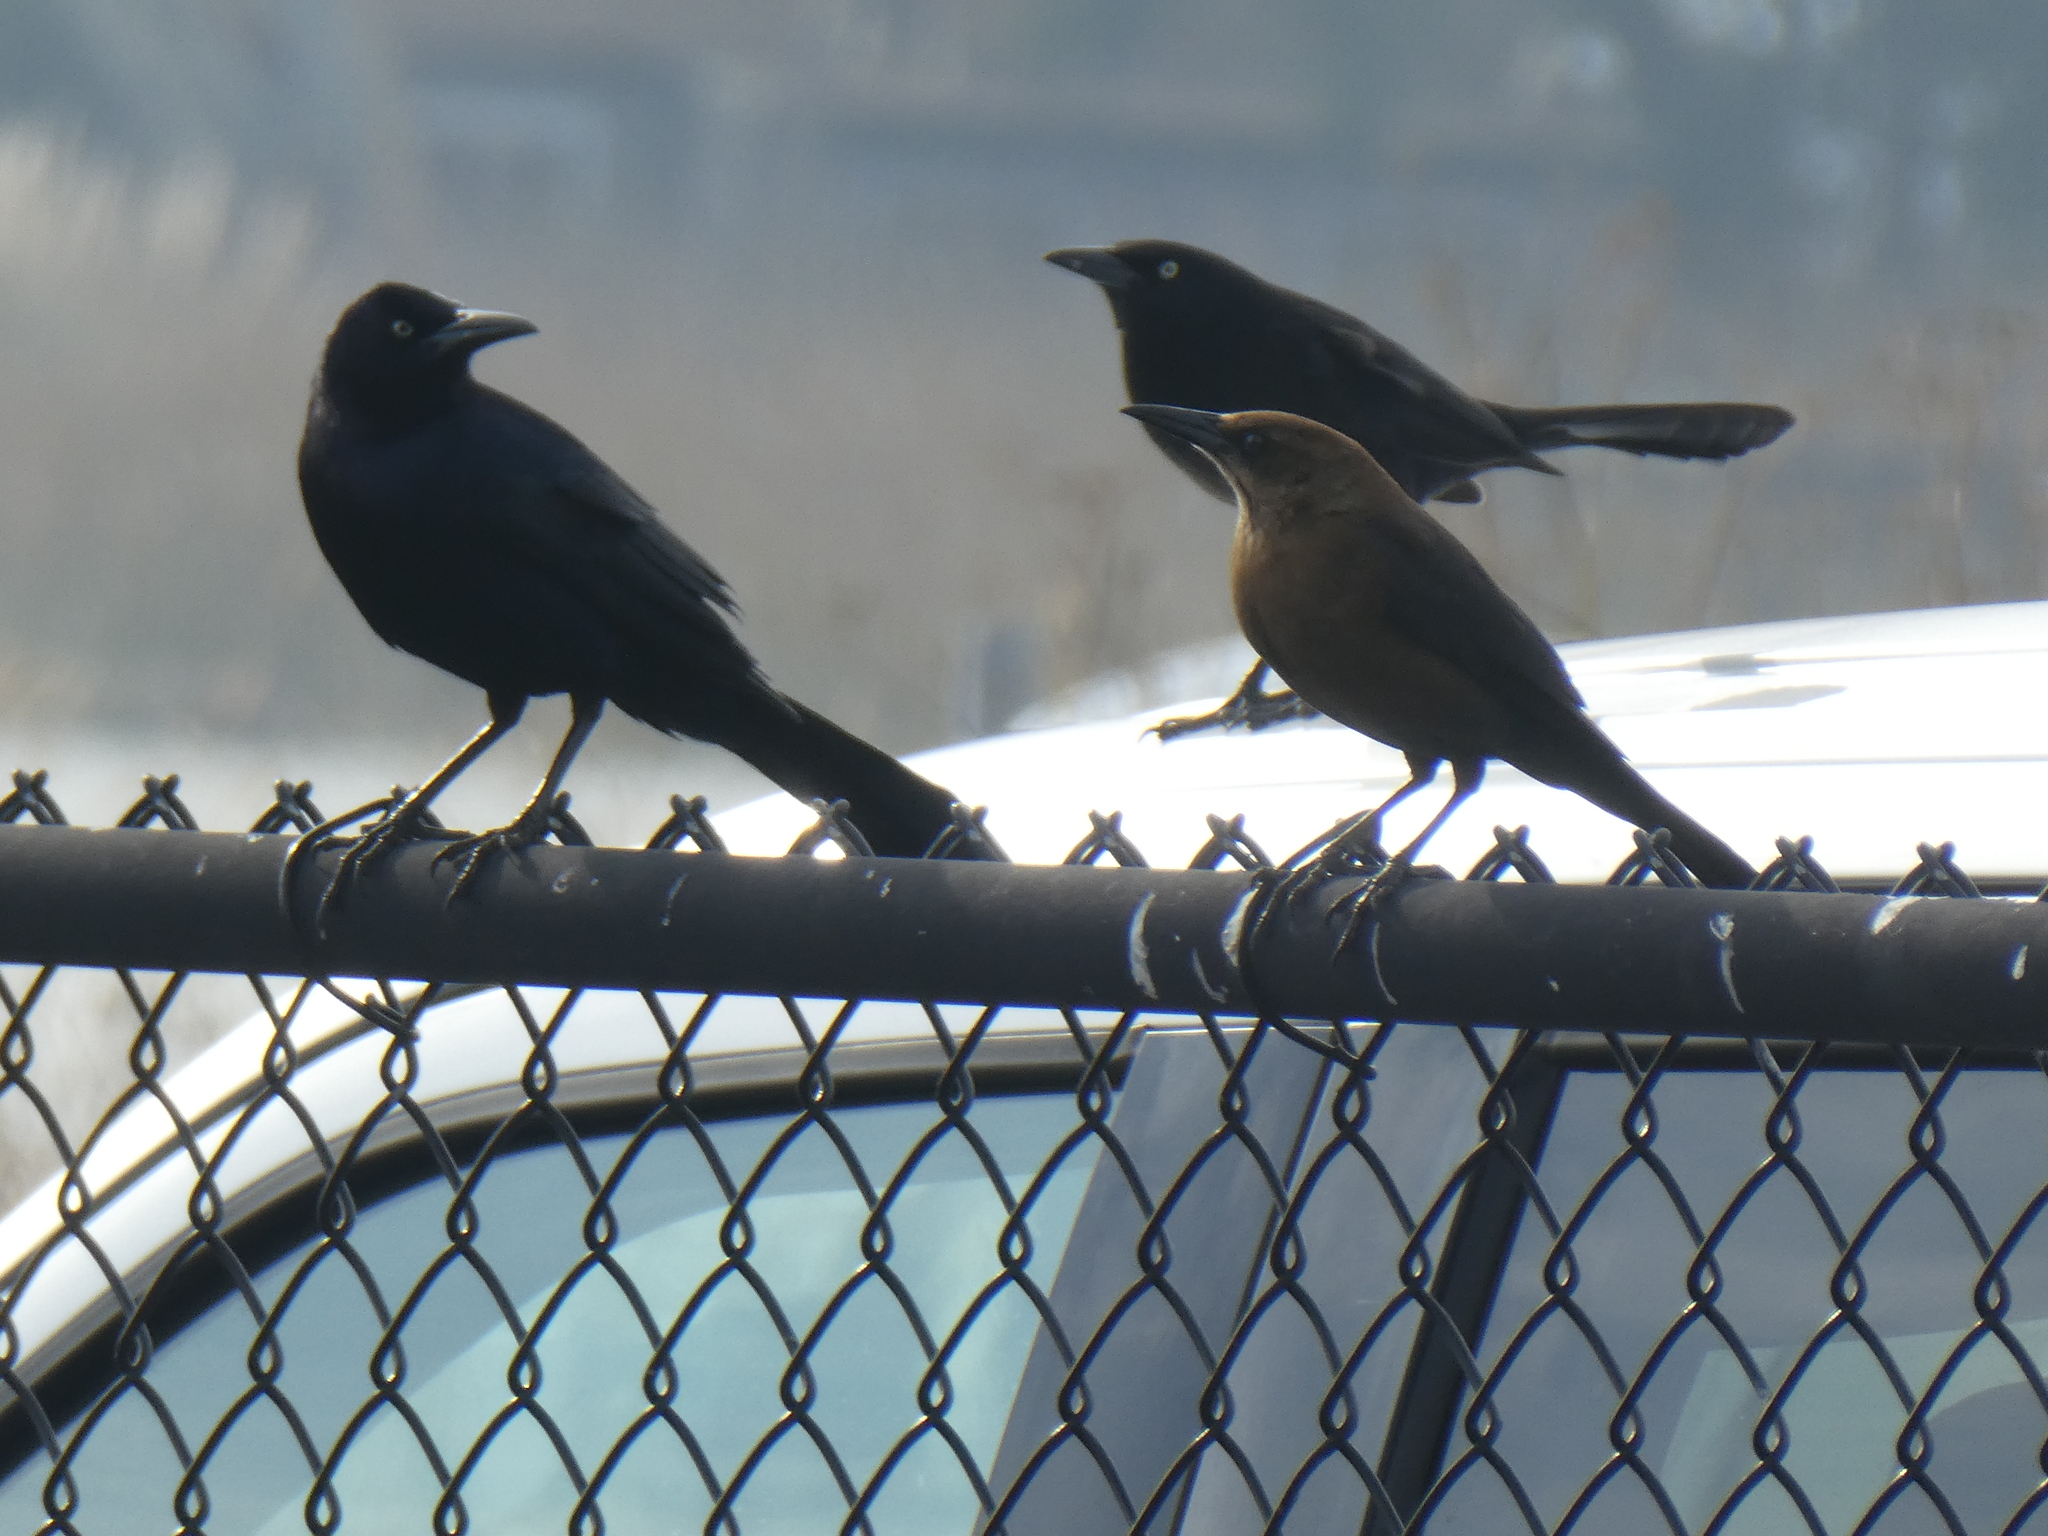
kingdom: Animalia
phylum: Chordata
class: Aves
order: Passeriformes
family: Icteridae
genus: Quiscalus
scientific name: Quiscalus mexicanus
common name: Great-tailed grackle
